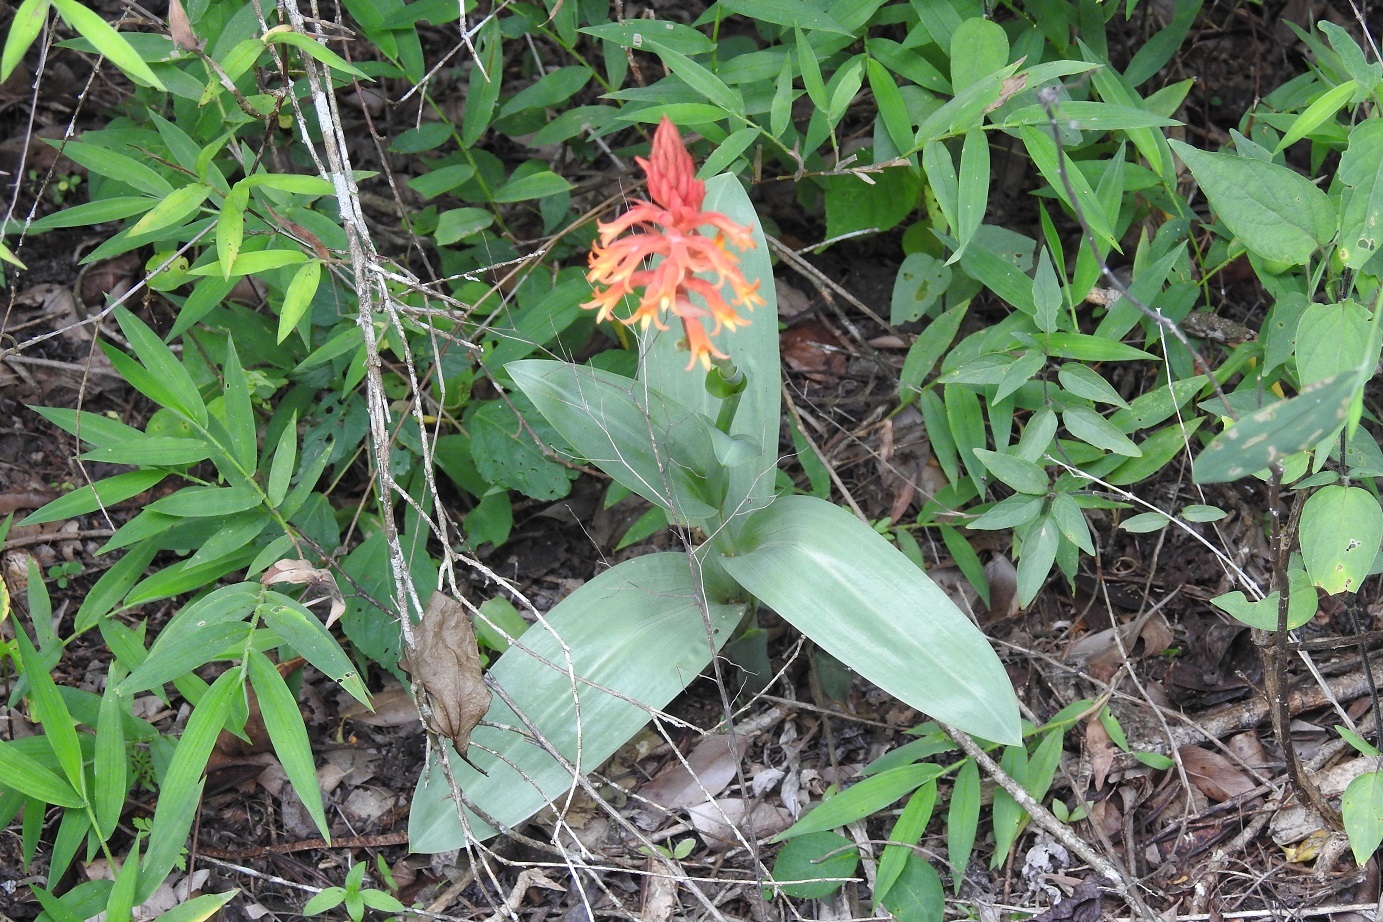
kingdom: Plantae
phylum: Tracheophyta
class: Liliopsida
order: Asparagales
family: Orchidaceae
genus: Dichromanthus
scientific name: Dichromanthus cinnabarinus
